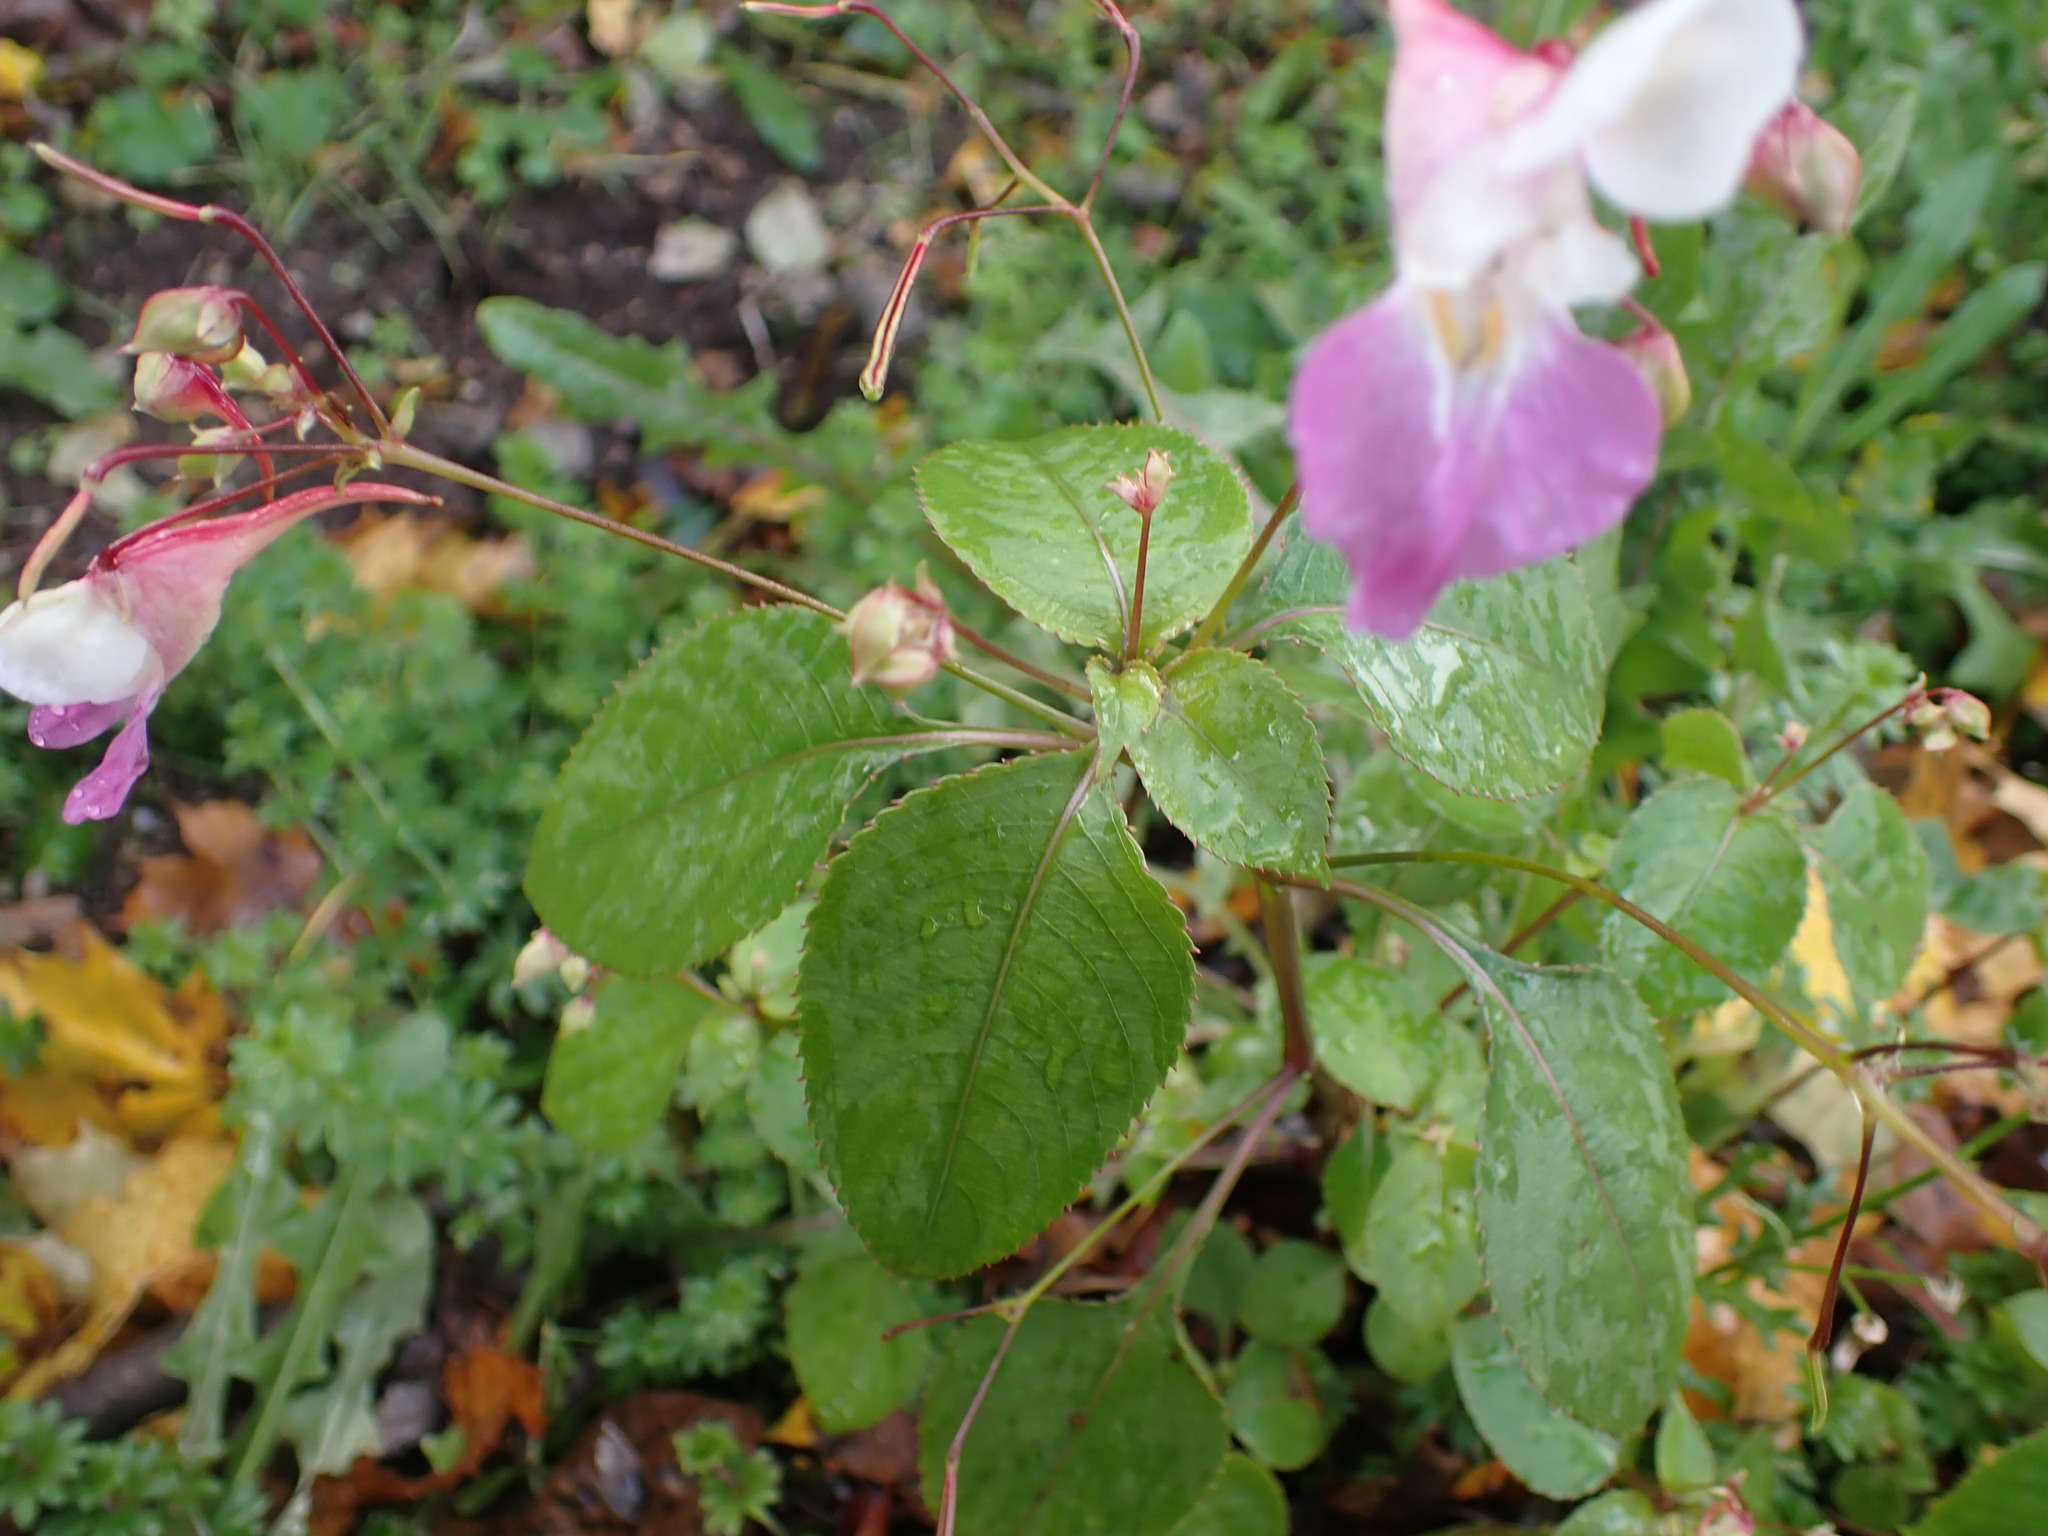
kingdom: Plantae
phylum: Tracheophyta
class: Magnoliopsida
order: Ericales
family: Balsaminaceae
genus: Impatiens
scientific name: Impatiens balfourii
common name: Balfour's touch-me-not
